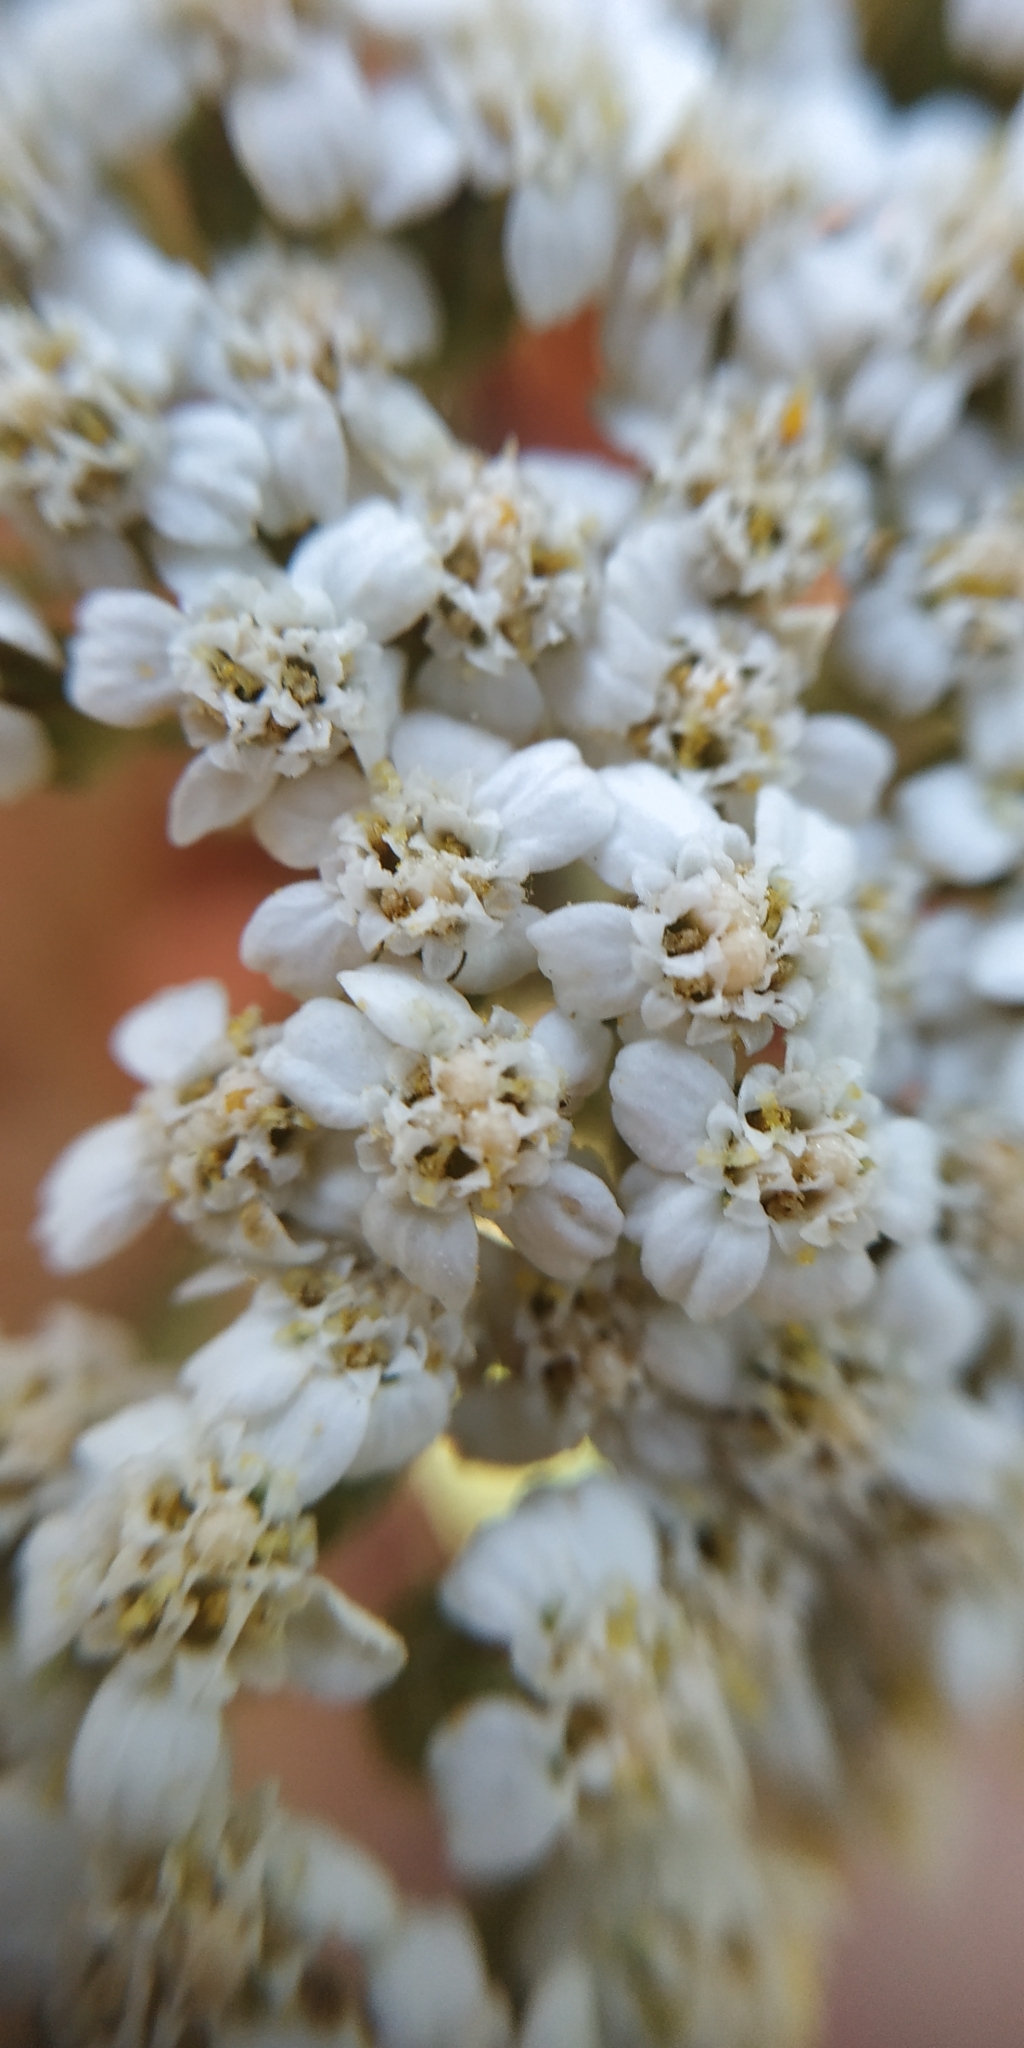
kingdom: Plantae
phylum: Tracheophyta
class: Magnoliopsida
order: Asterales
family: Asteraceae
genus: Achillea
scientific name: Achillea millefolium
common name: Yarrow
